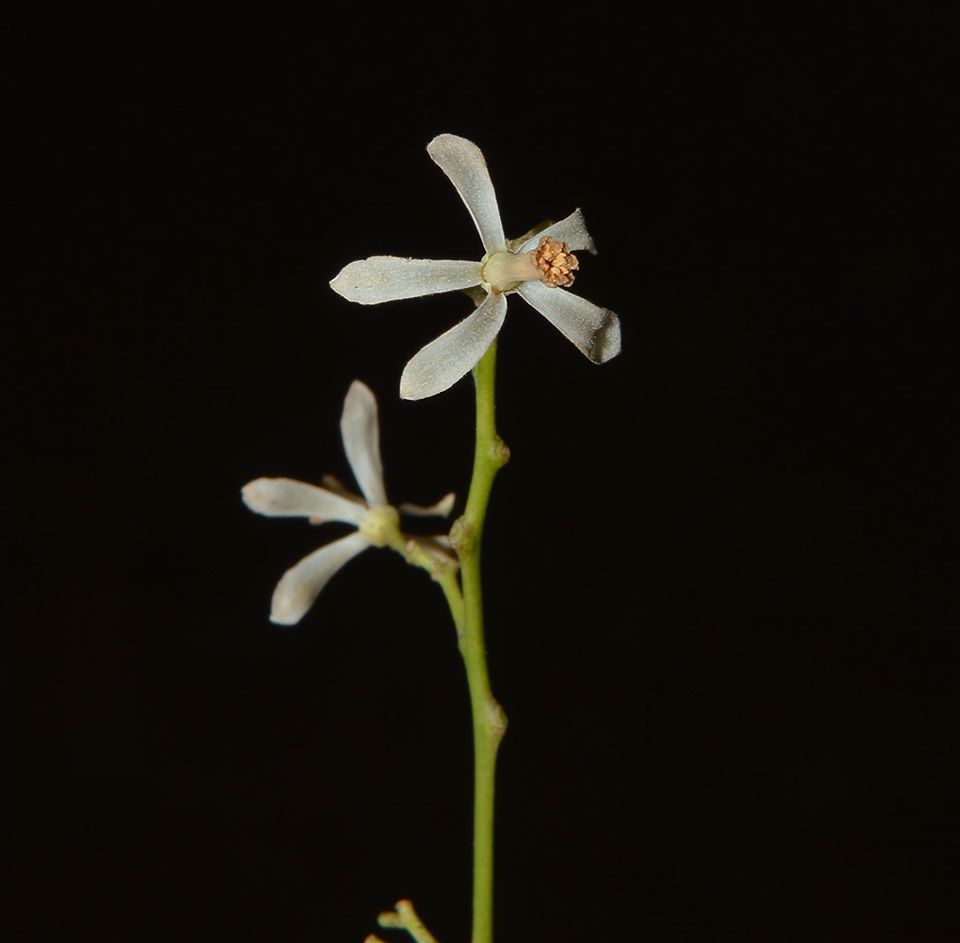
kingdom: Plantae
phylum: Tracheophyta
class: Magnoliopsida
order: Sapindales
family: Meliaceae
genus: Azadirachta
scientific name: Azadirachta indica
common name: Neem
